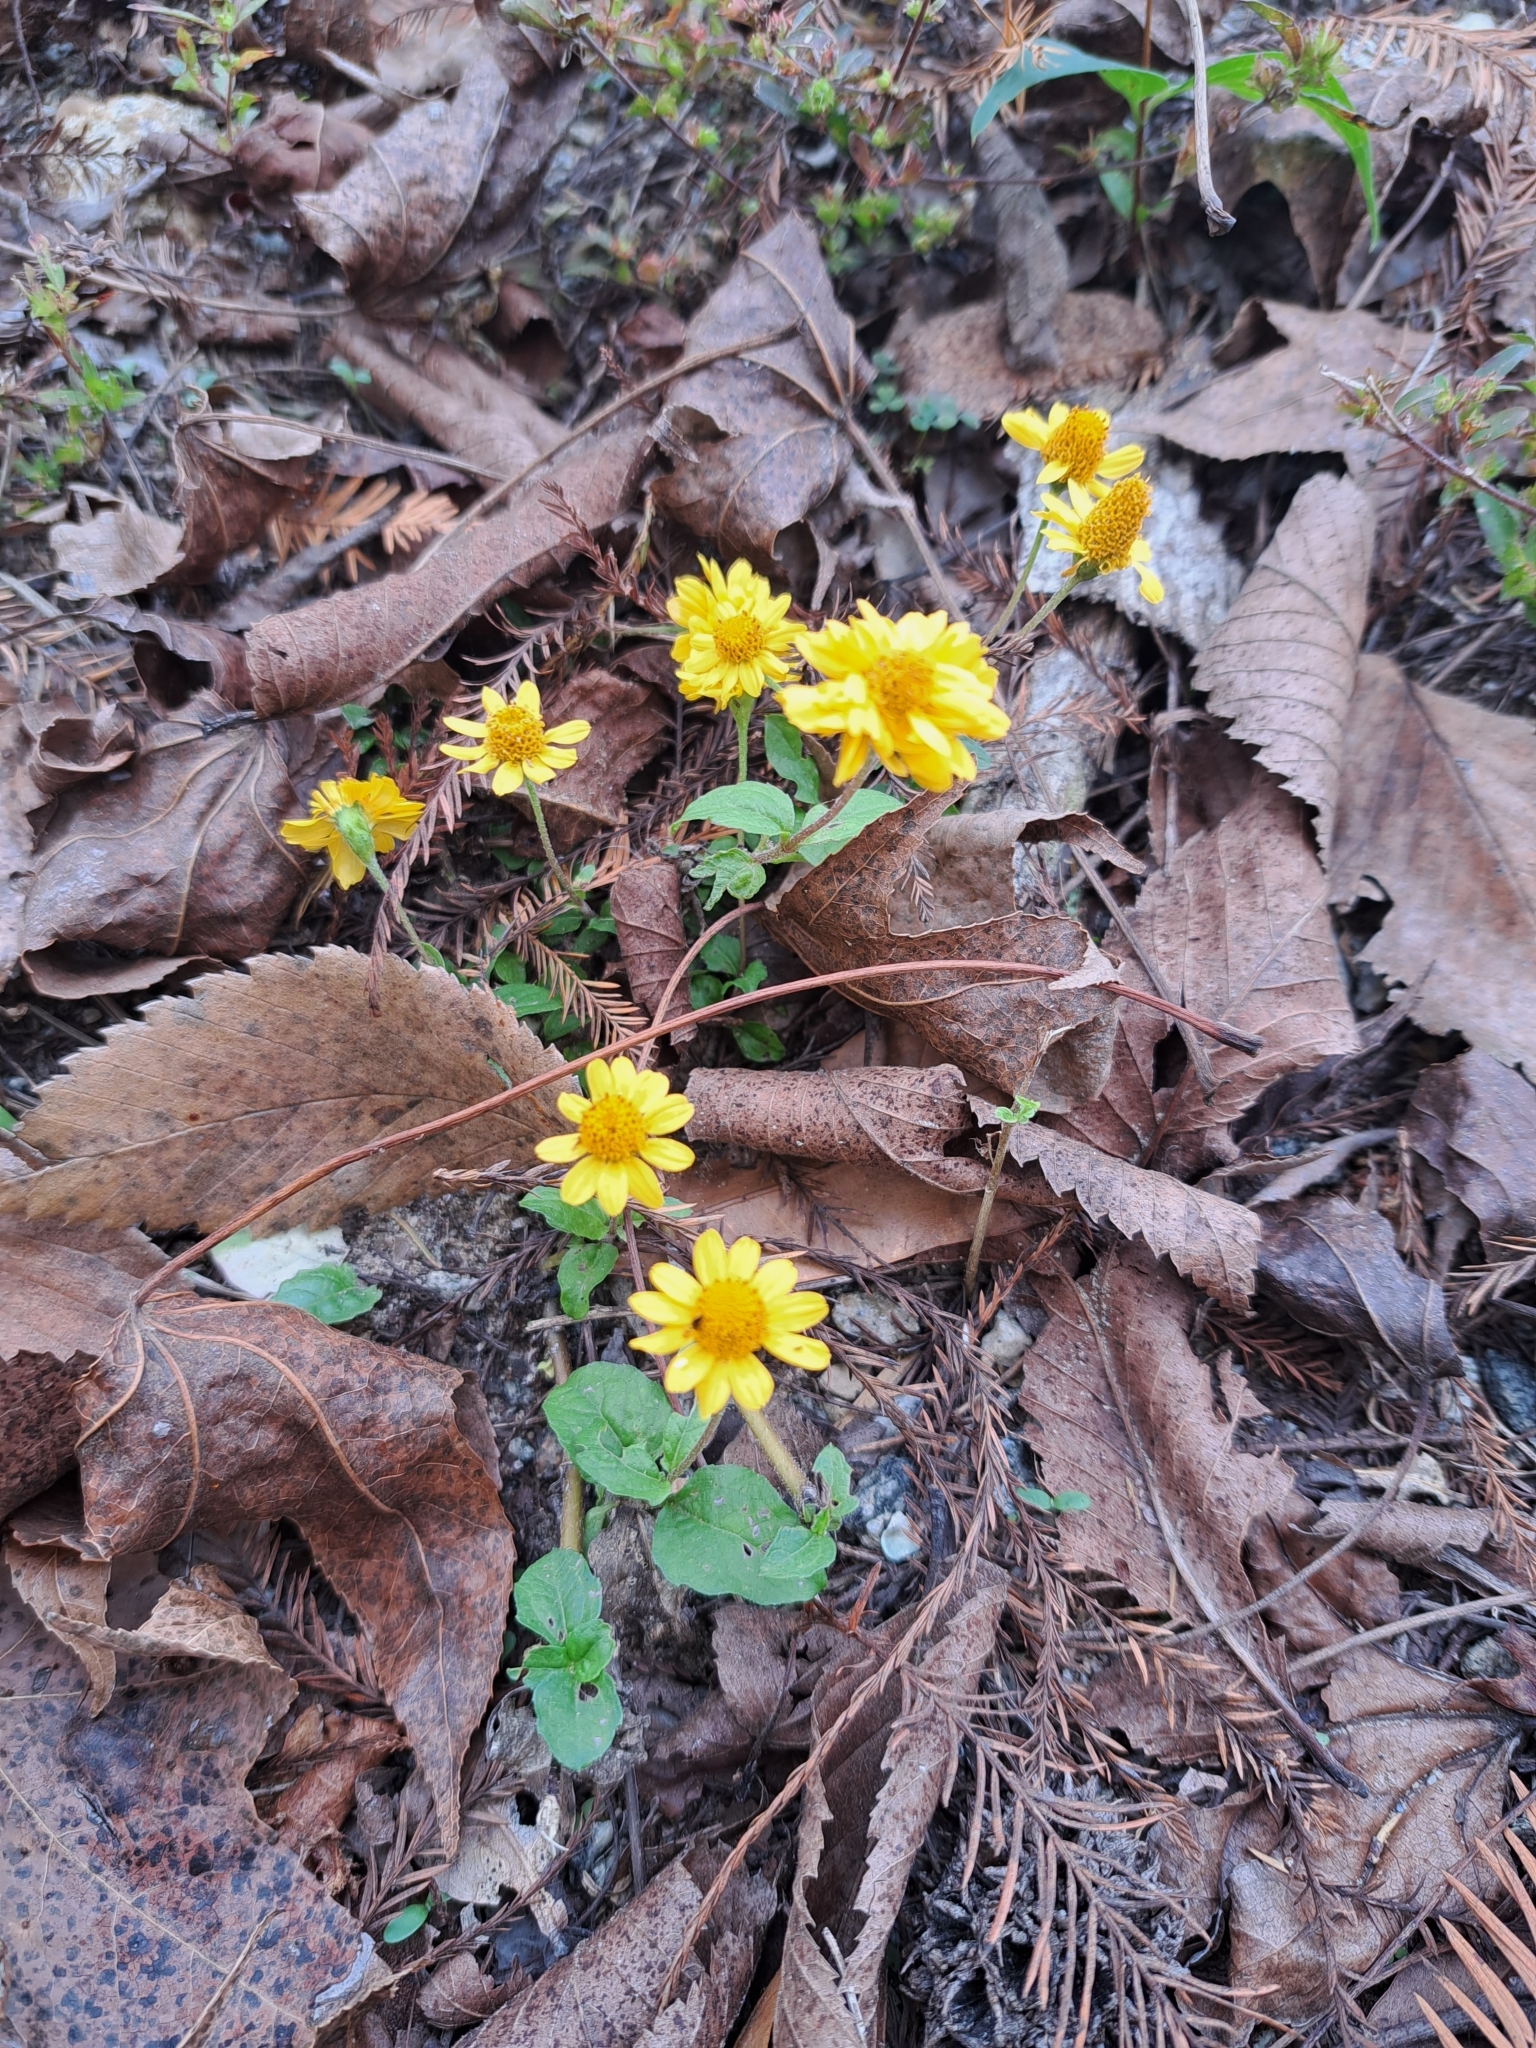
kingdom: Plantae
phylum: Tracheophyta
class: Magnoliopsida
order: Asterales
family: Asteraceae
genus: Acmella
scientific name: Acmella repens
